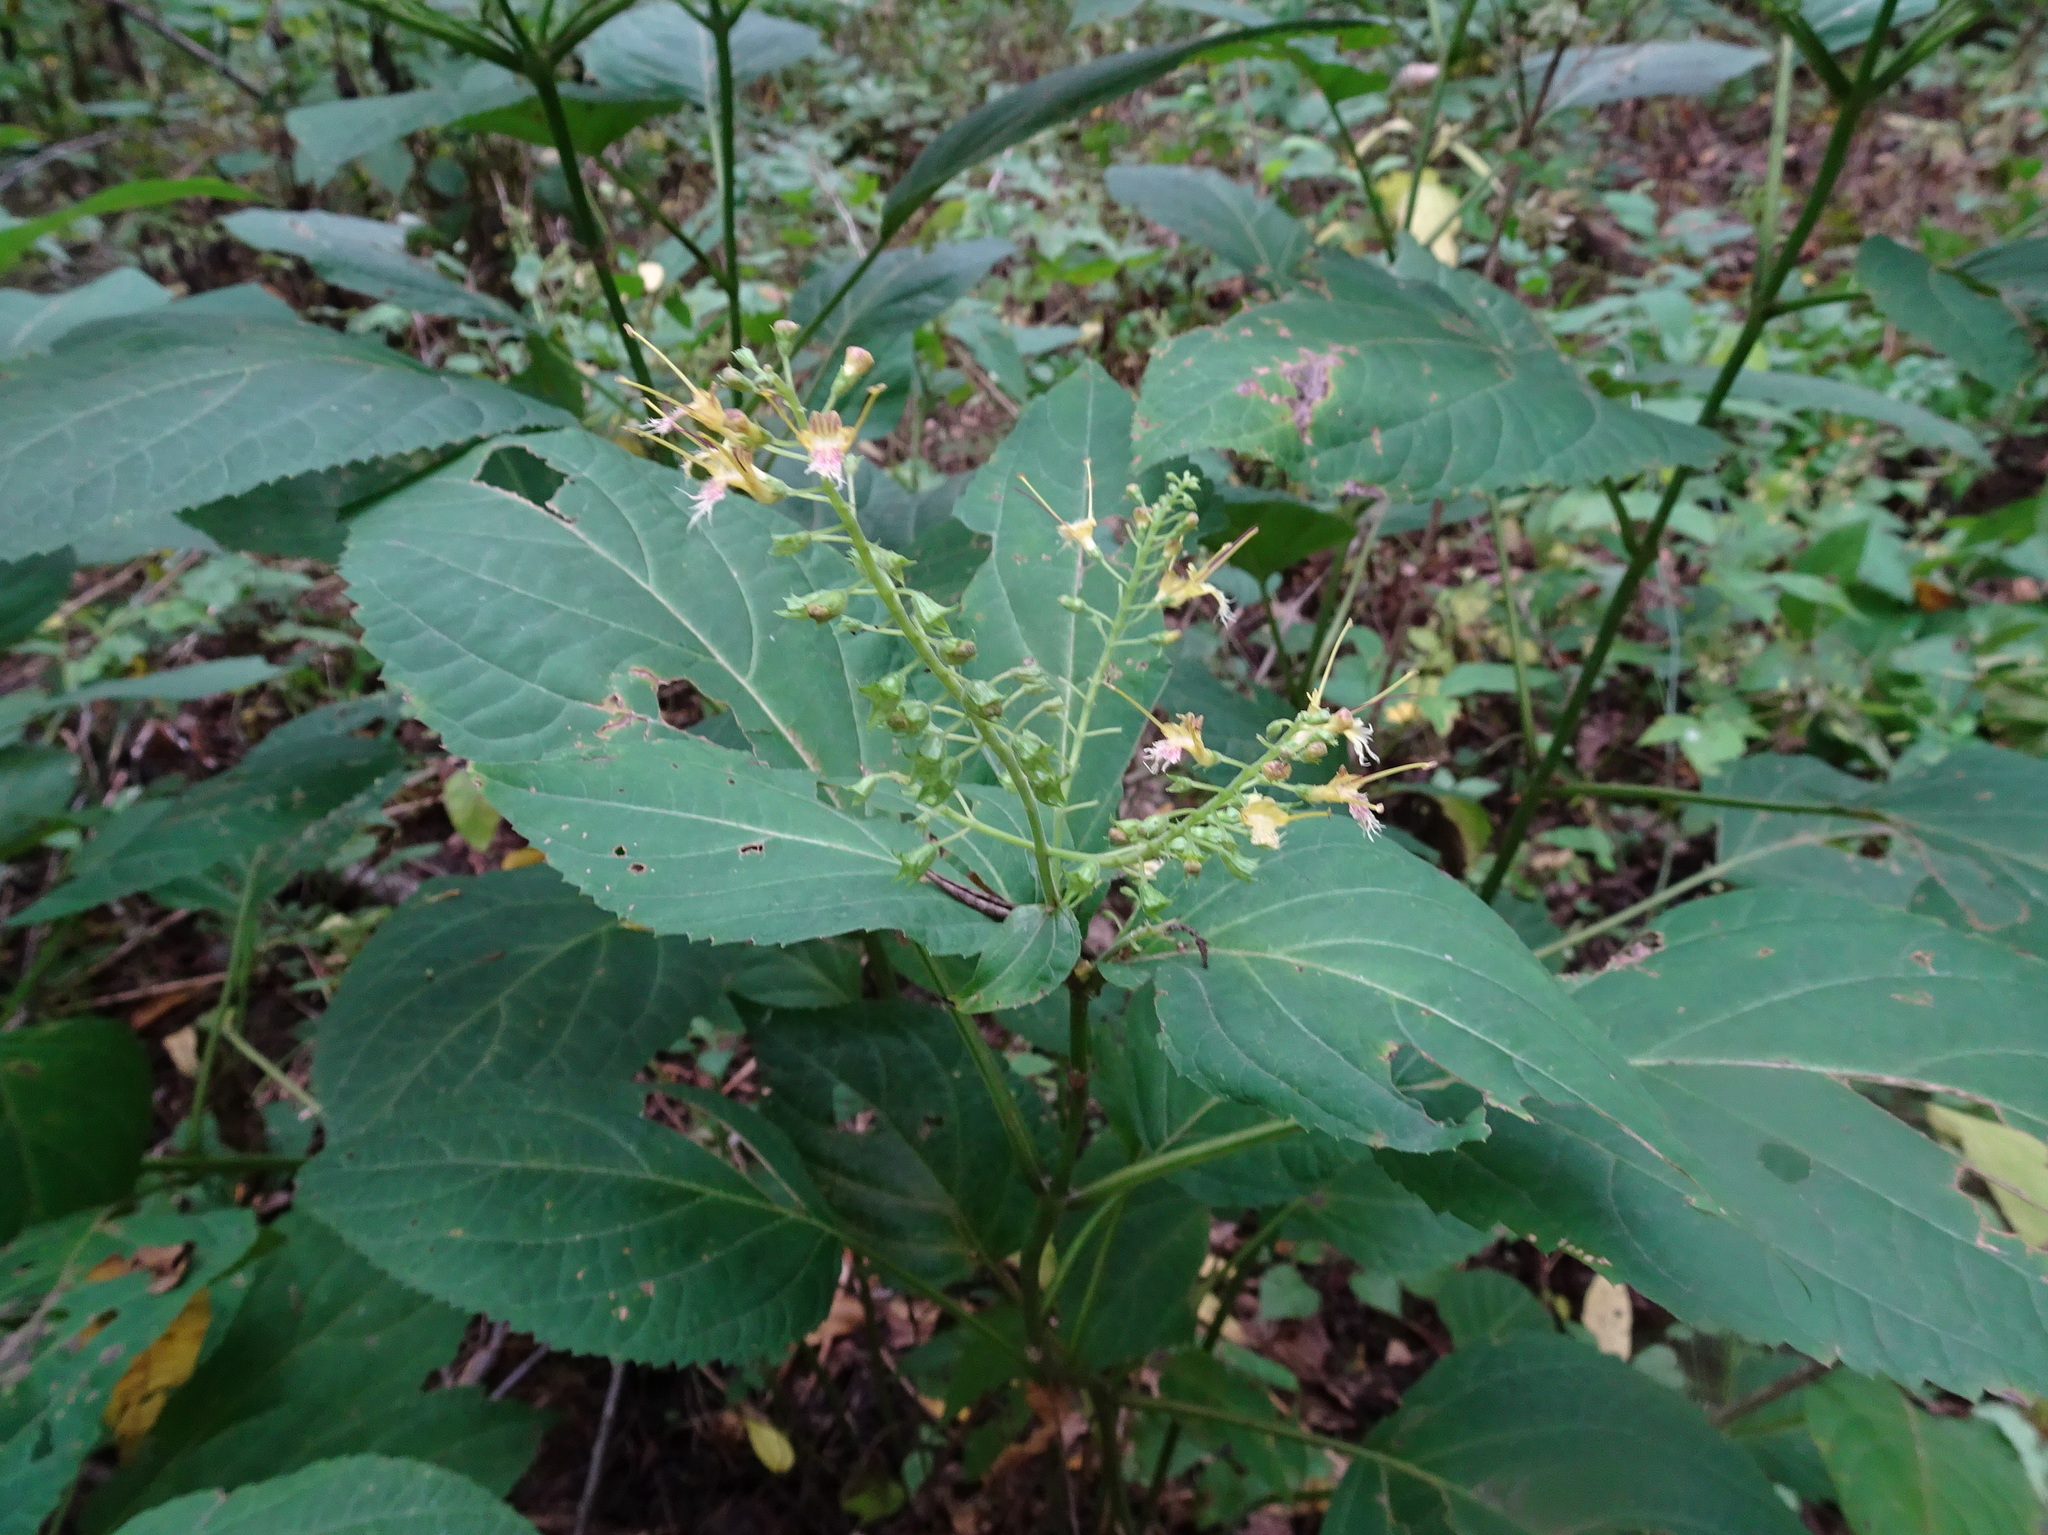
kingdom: Plantae
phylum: Tracheophyta
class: Magnoliopsida
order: Lamiales
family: Lamiaceae
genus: Collinsonia
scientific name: Collinsonia canadensis
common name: Northern horsebalm
